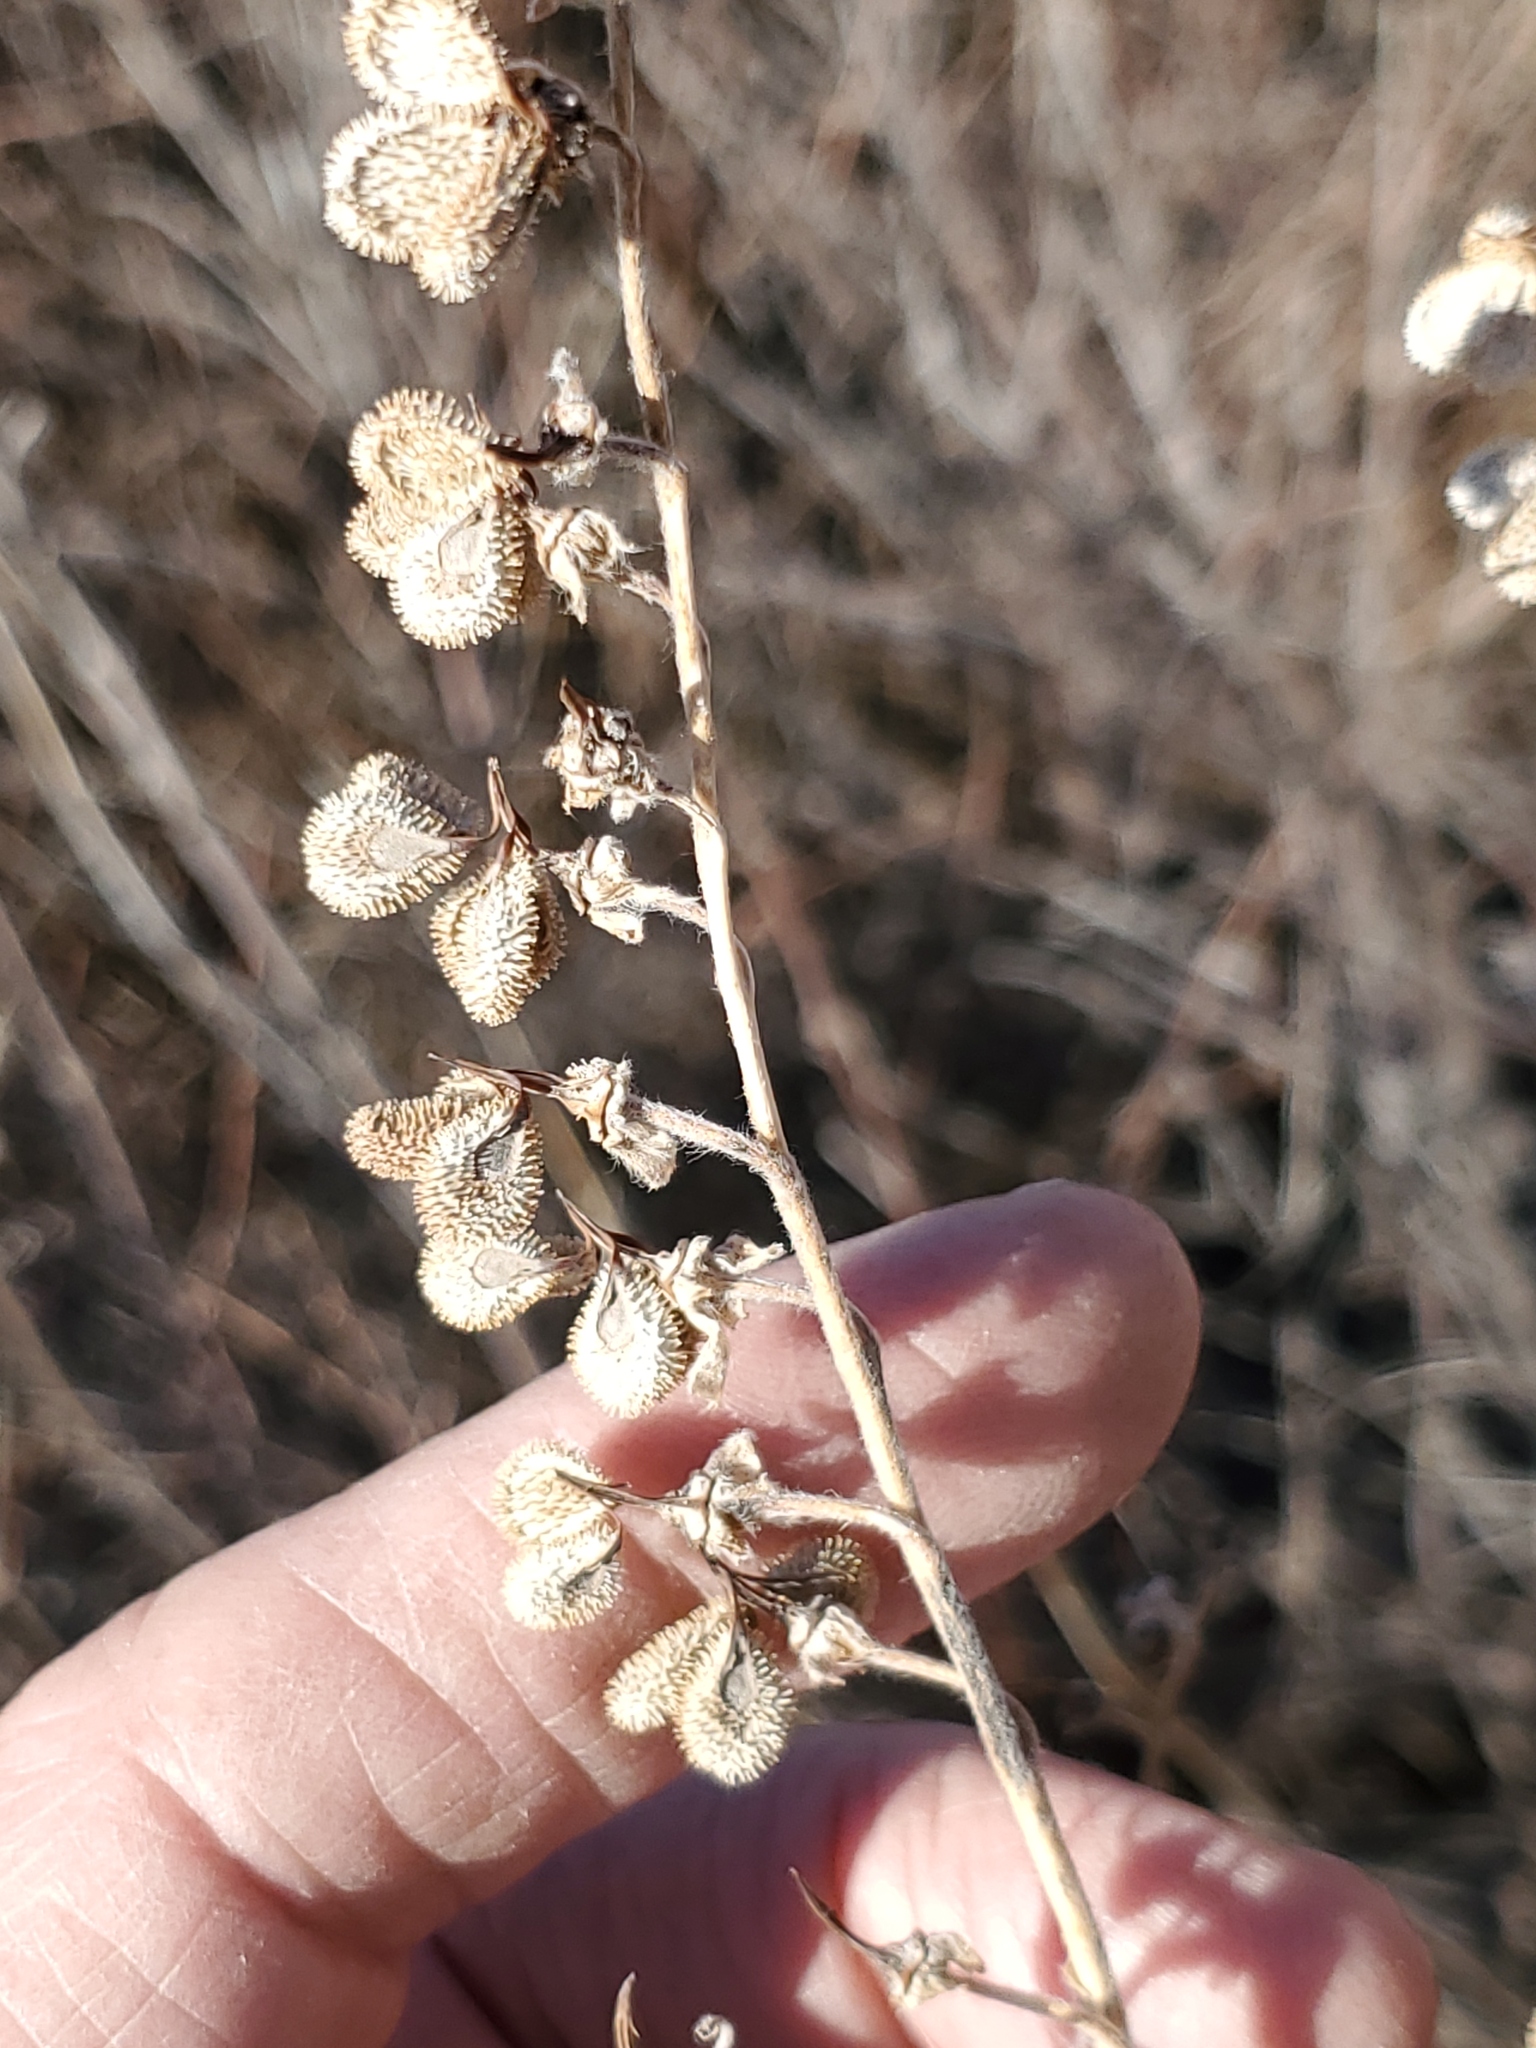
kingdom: Plantae
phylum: Tracheophyta
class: Magnoliopsida
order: Boraginales
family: Boraginaceae
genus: Cynoglossum
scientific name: Cynoglossum officinale
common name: Hound's-tongue
